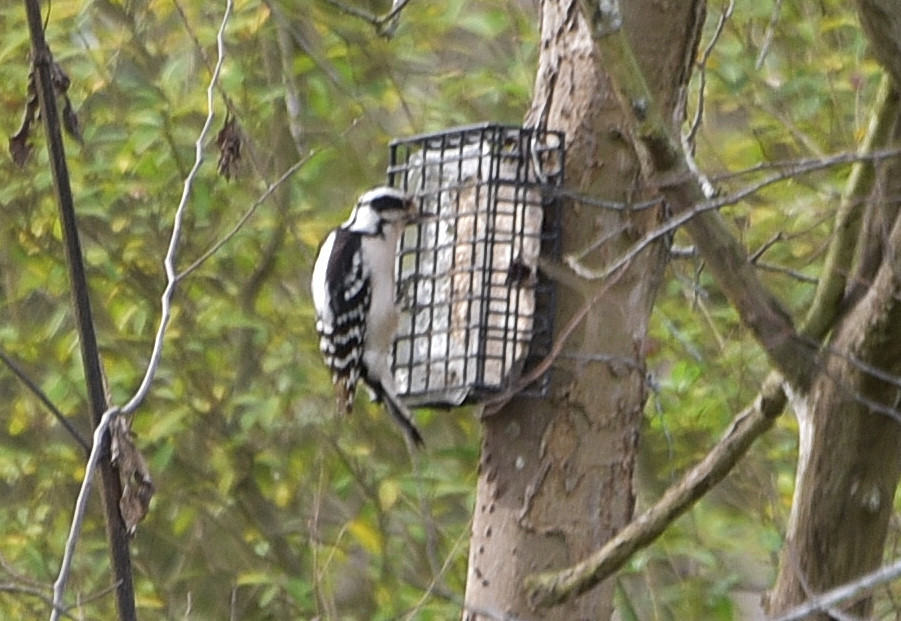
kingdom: Animalia
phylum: Chordata
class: Aves
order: Piciformes
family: Picidae
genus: Dryobates
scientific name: Dryobates pubescens
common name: Downy woodpecker
